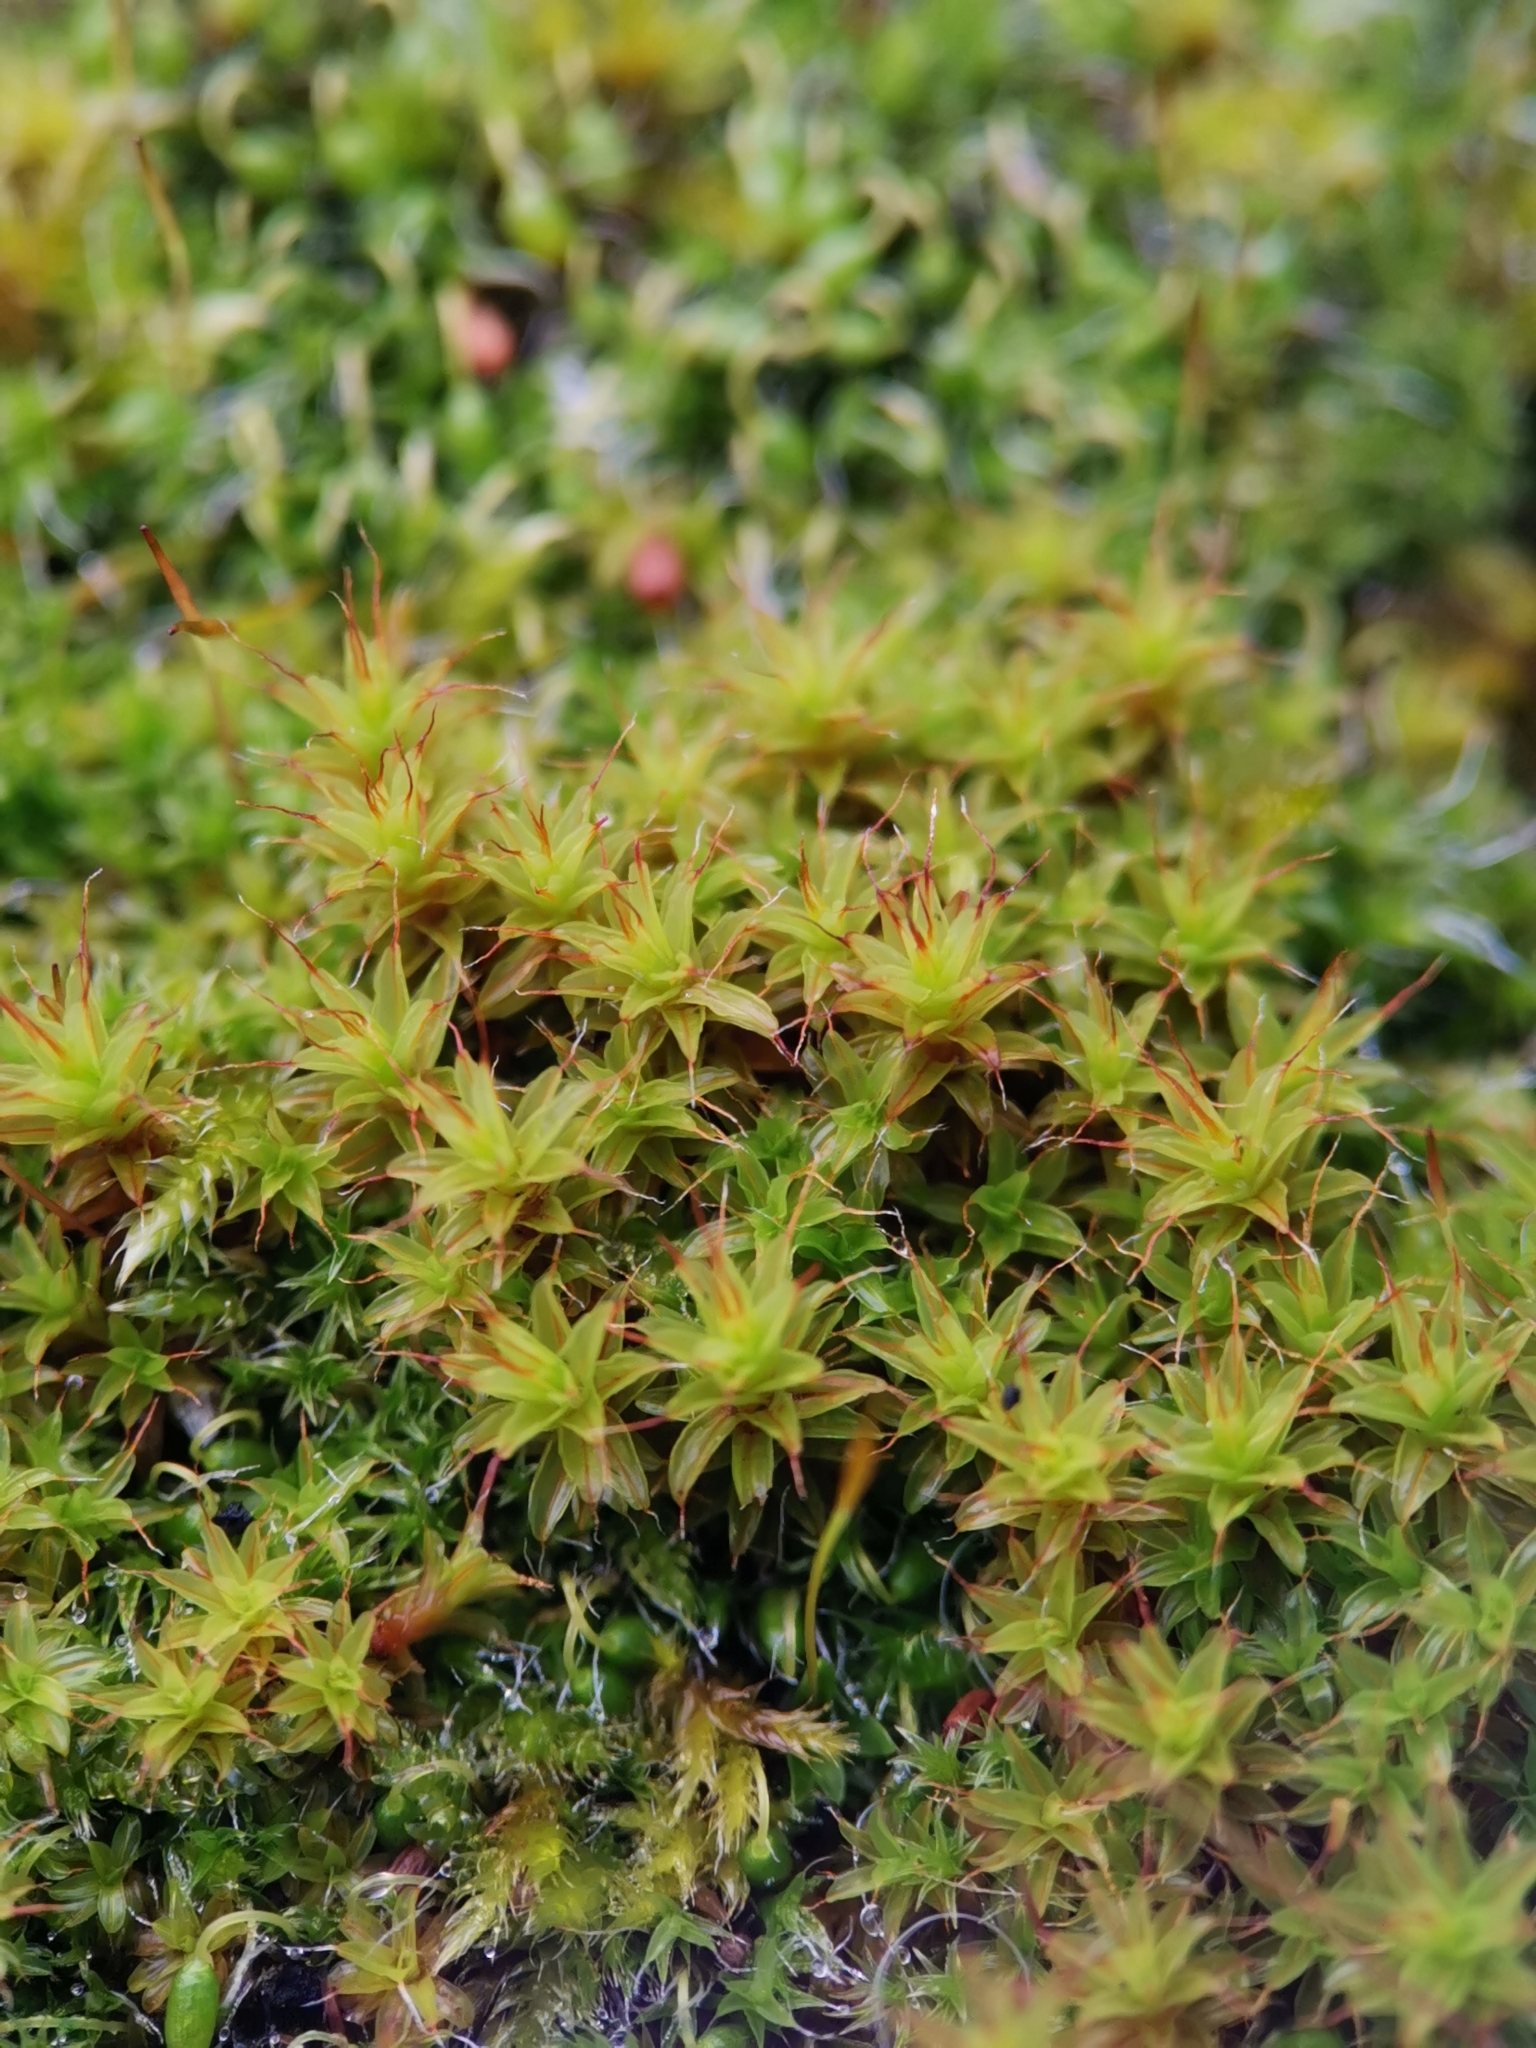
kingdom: Plantae
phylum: Bryophyta
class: Bryopsida
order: Pottiales
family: Pottiaceae
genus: Syntrichia
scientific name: Syntrichia ruralis
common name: Sidewalk screw moss
